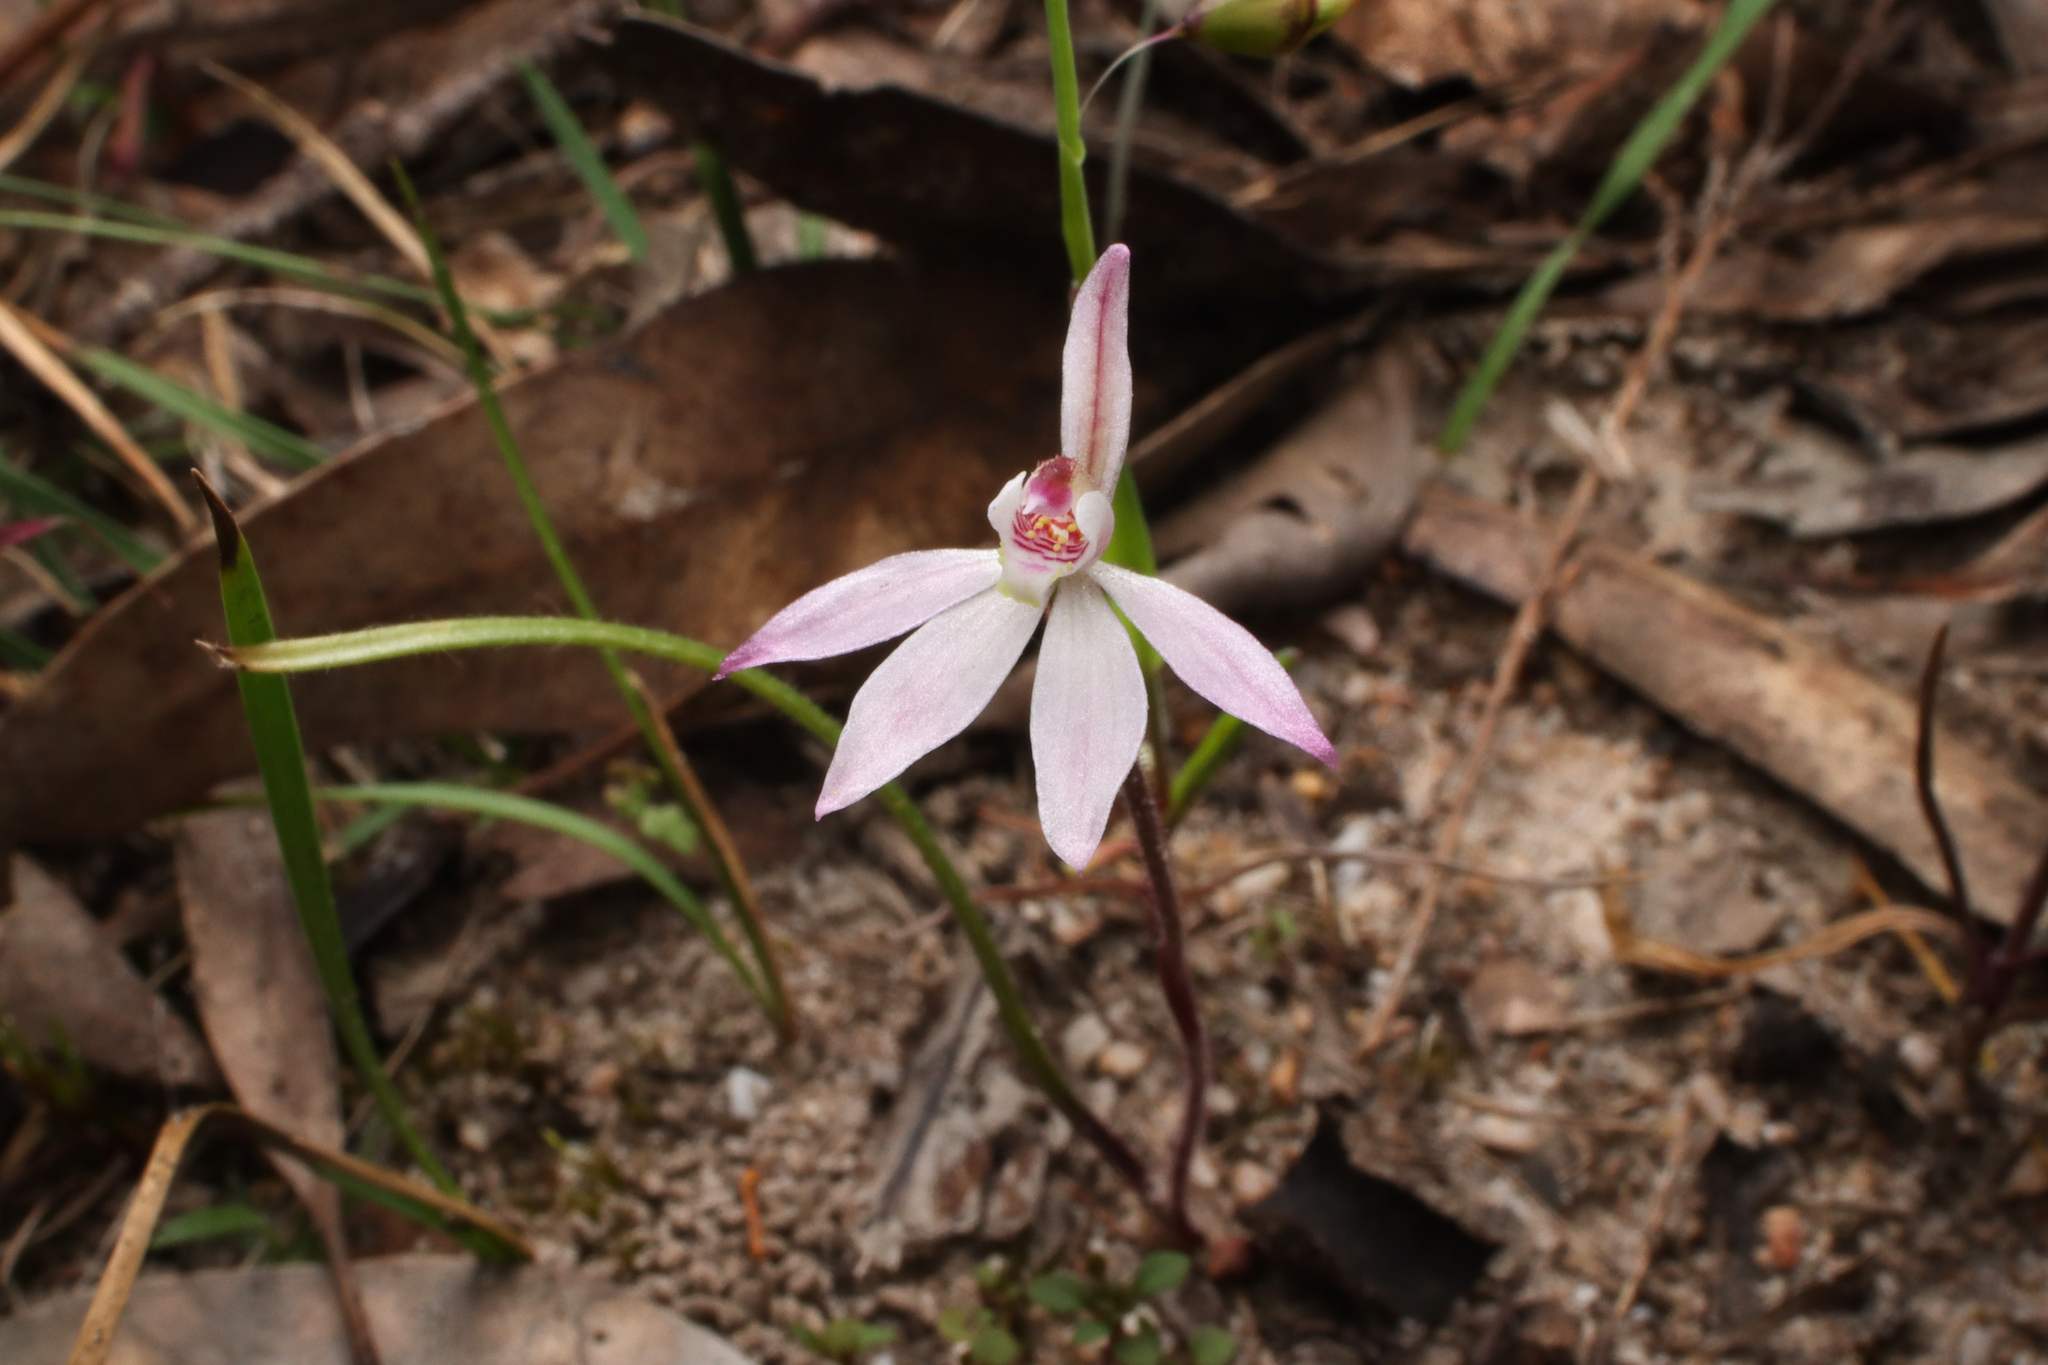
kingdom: Plantae
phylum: Tracheophyta
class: Liliopsida
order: Asparagales
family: Orchidaceae
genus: Caladenia
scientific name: Caladenia carnea
